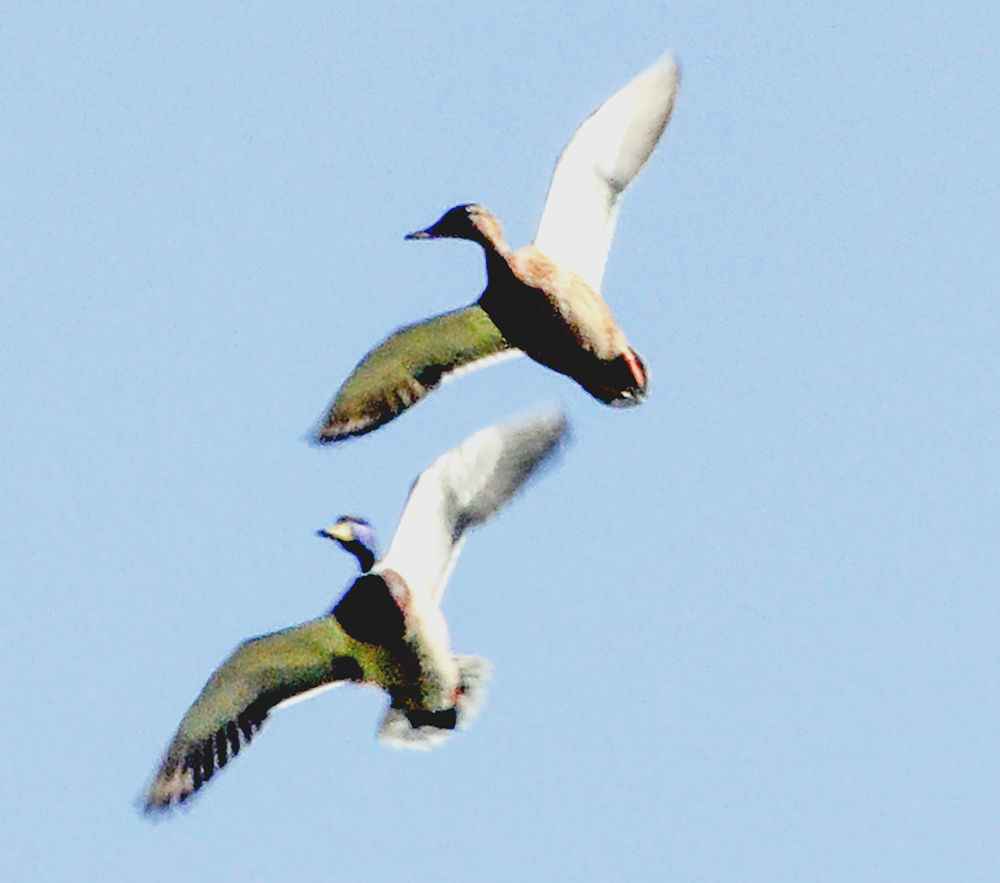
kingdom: Animalia
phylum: Chordata
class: Aves
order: Anseriformes
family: Anatidae
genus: Anas
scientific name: Anas platyrhynchos
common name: Mallard
